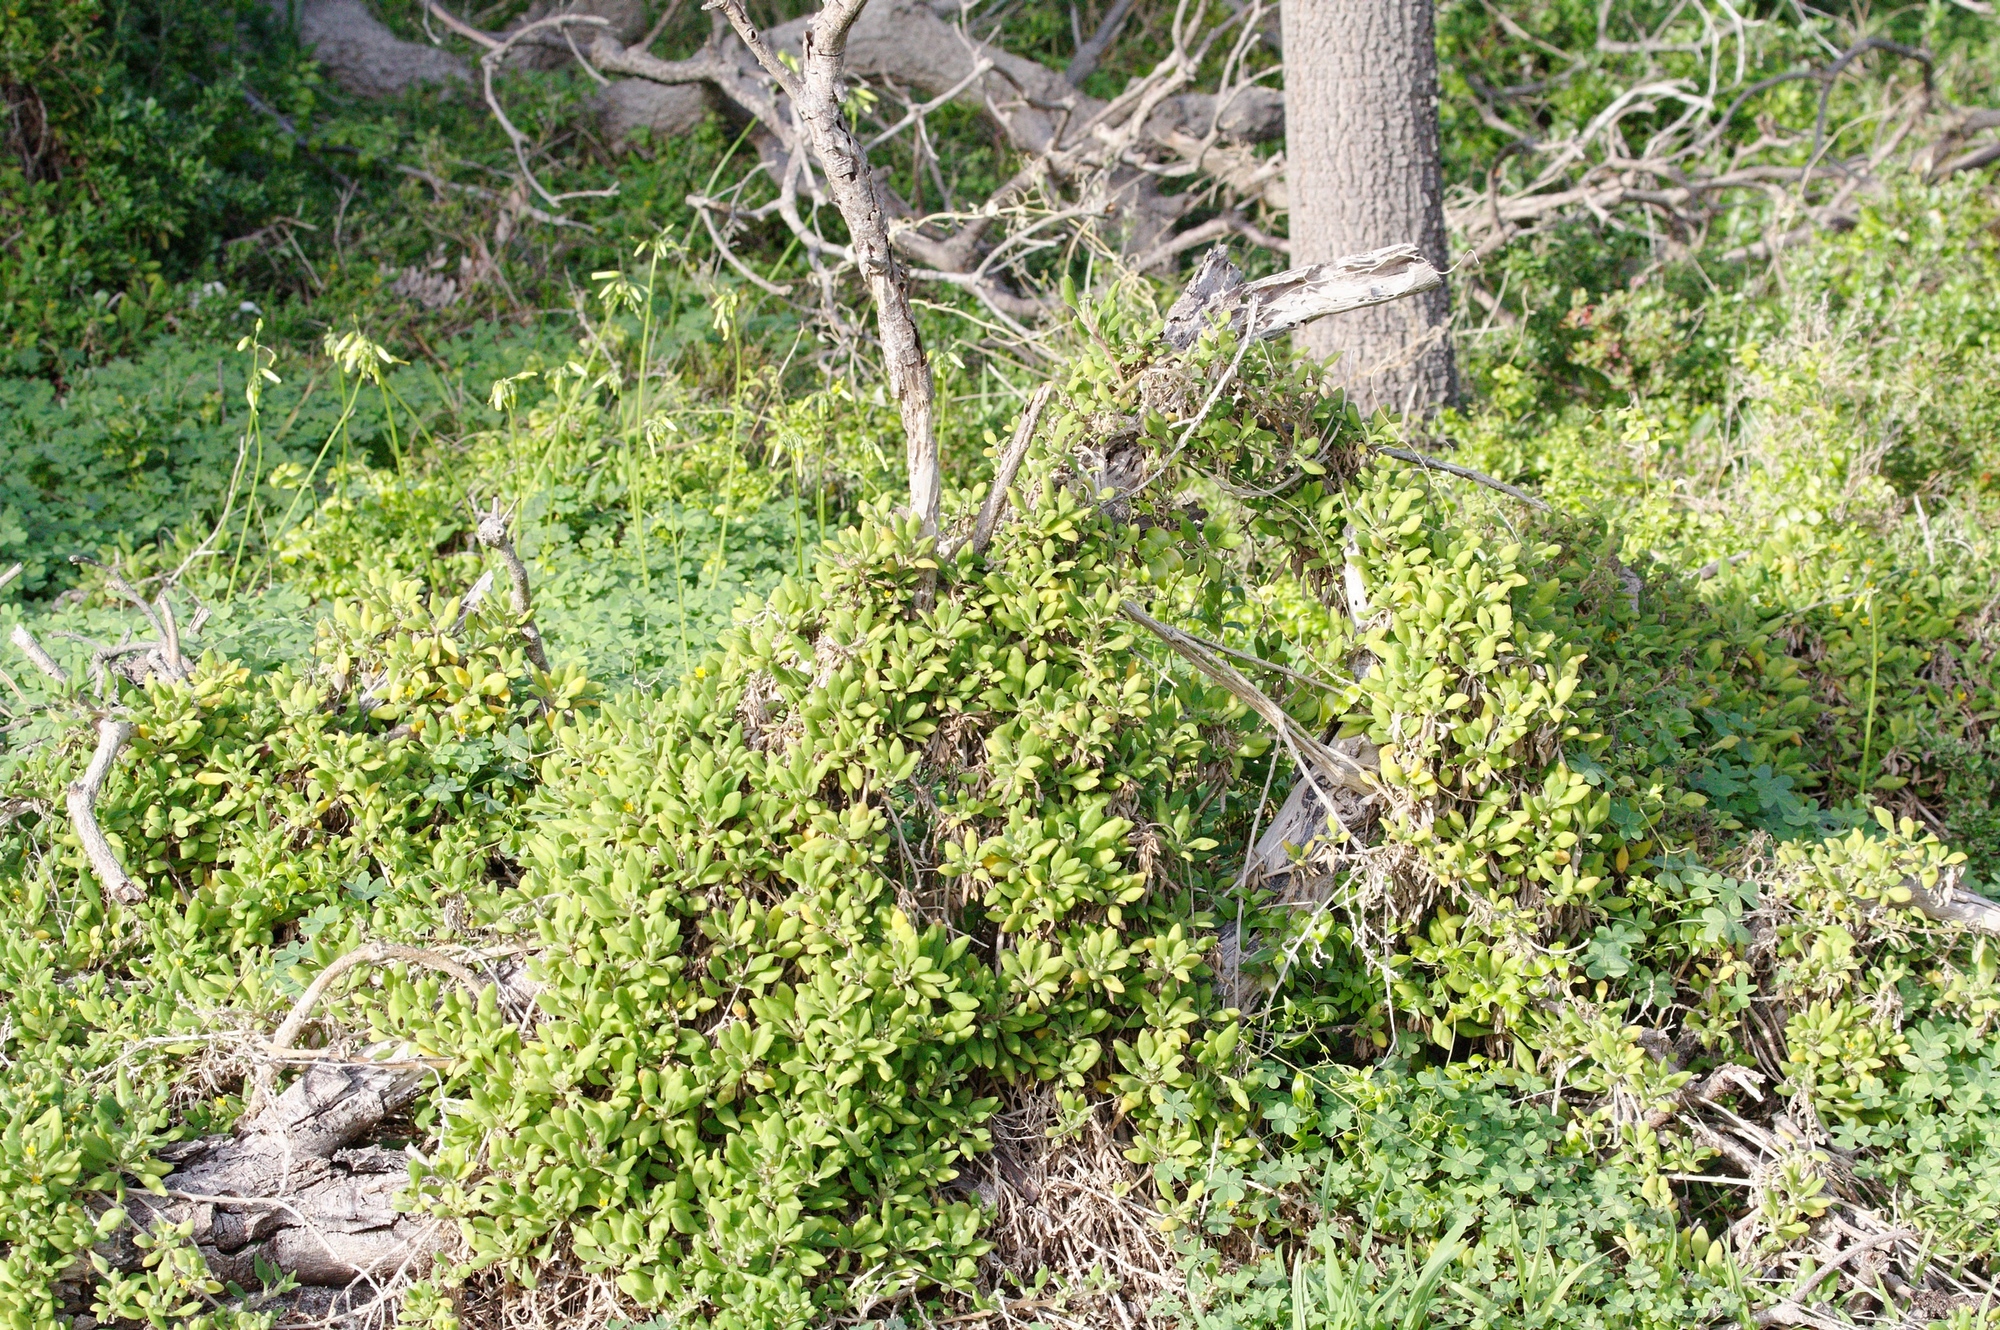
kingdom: Plantae
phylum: Tracheophyta
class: Magnoliopsida
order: Caryophyllales
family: Aizoaceae
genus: Tetragonia
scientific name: Tetragonia implexicoma
